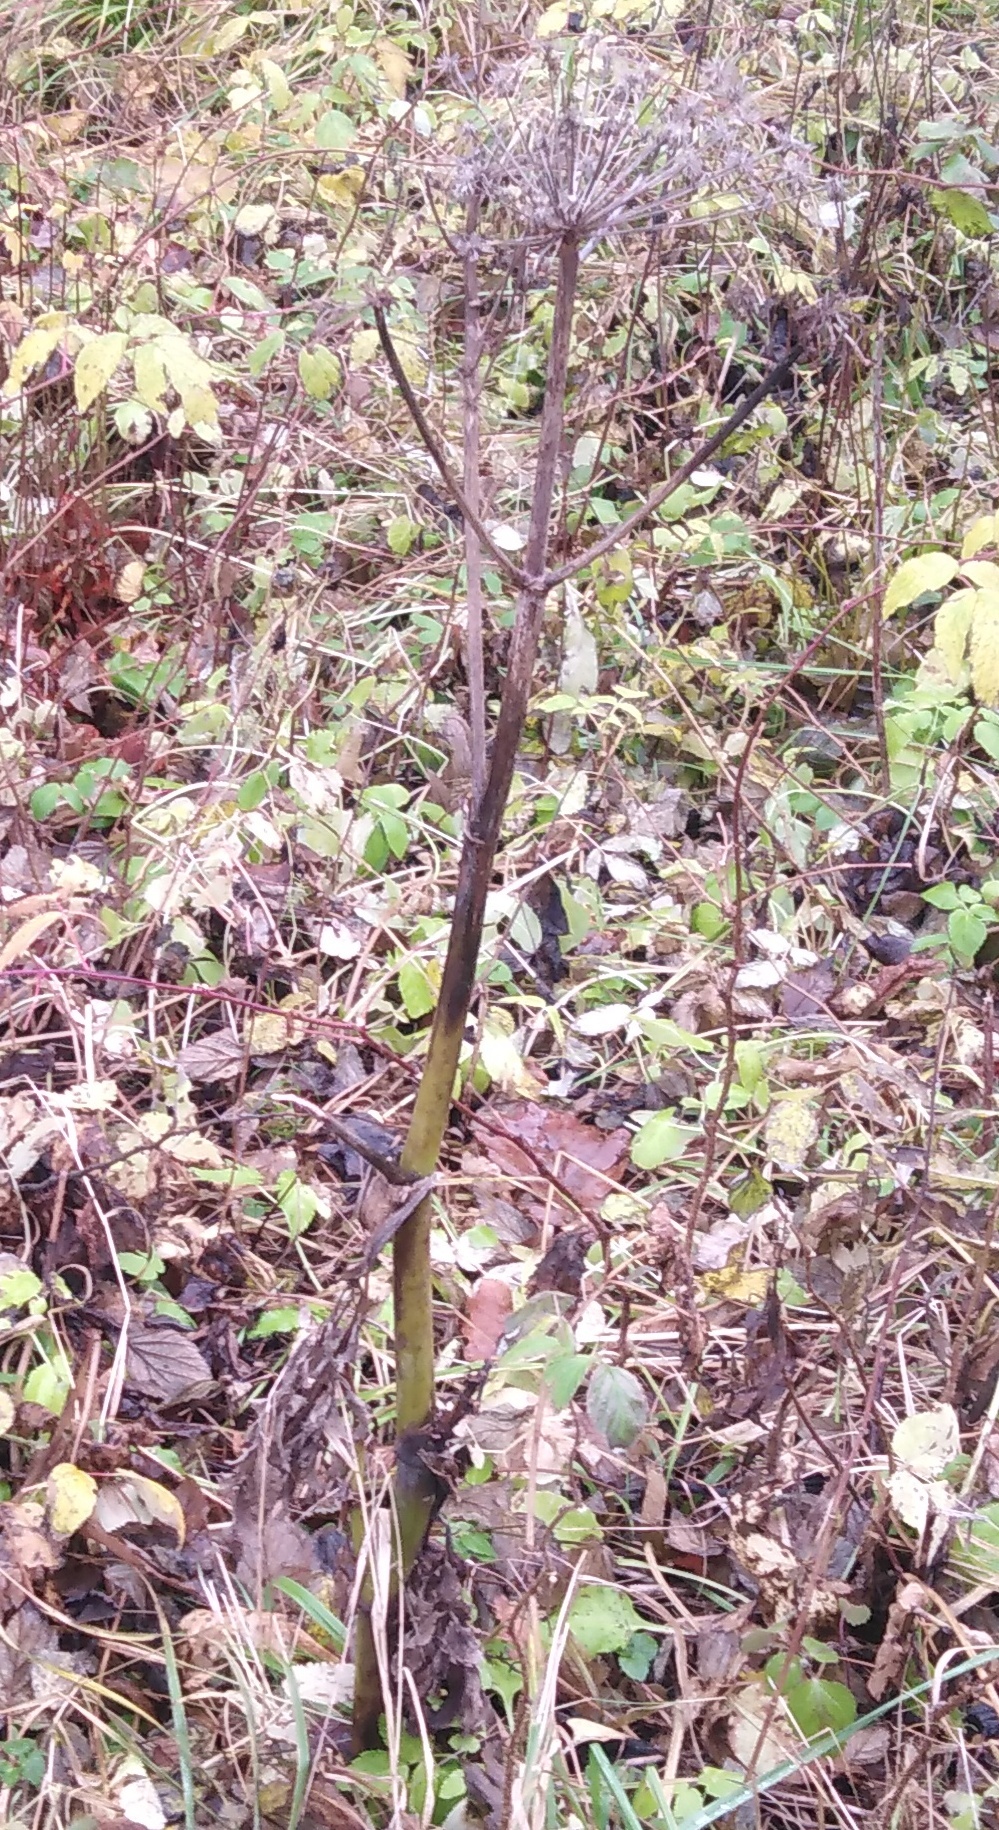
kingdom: Plantae
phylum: Tracheophyta
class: Magnoliopsida
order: Apiales
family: Apiaceae
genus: Angelica
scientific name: Angelica sylvestris
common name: Wild angelica
